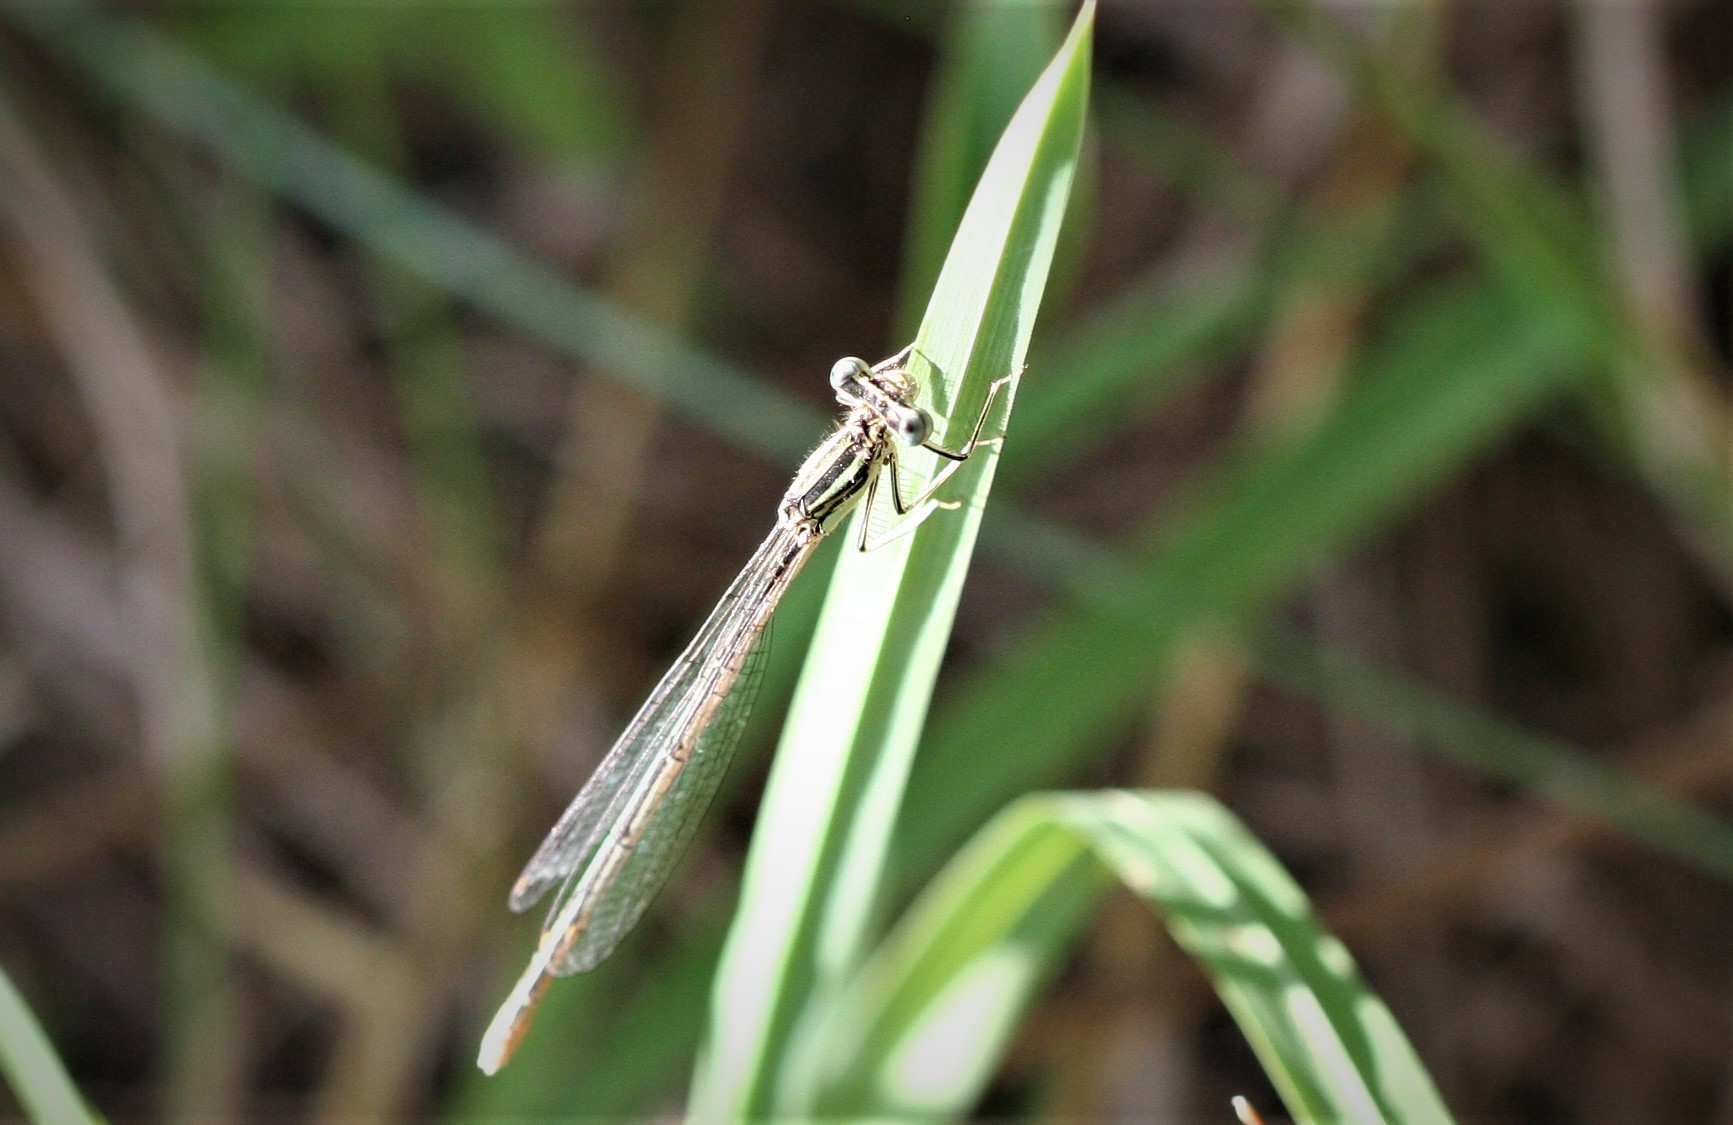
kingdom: Animalia
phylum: Arthropoda
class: Insecta
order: Odonata
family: Platycnemididae
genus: Platycnemis
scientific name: Platycnemis pennipes
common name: White-legged damselfly
